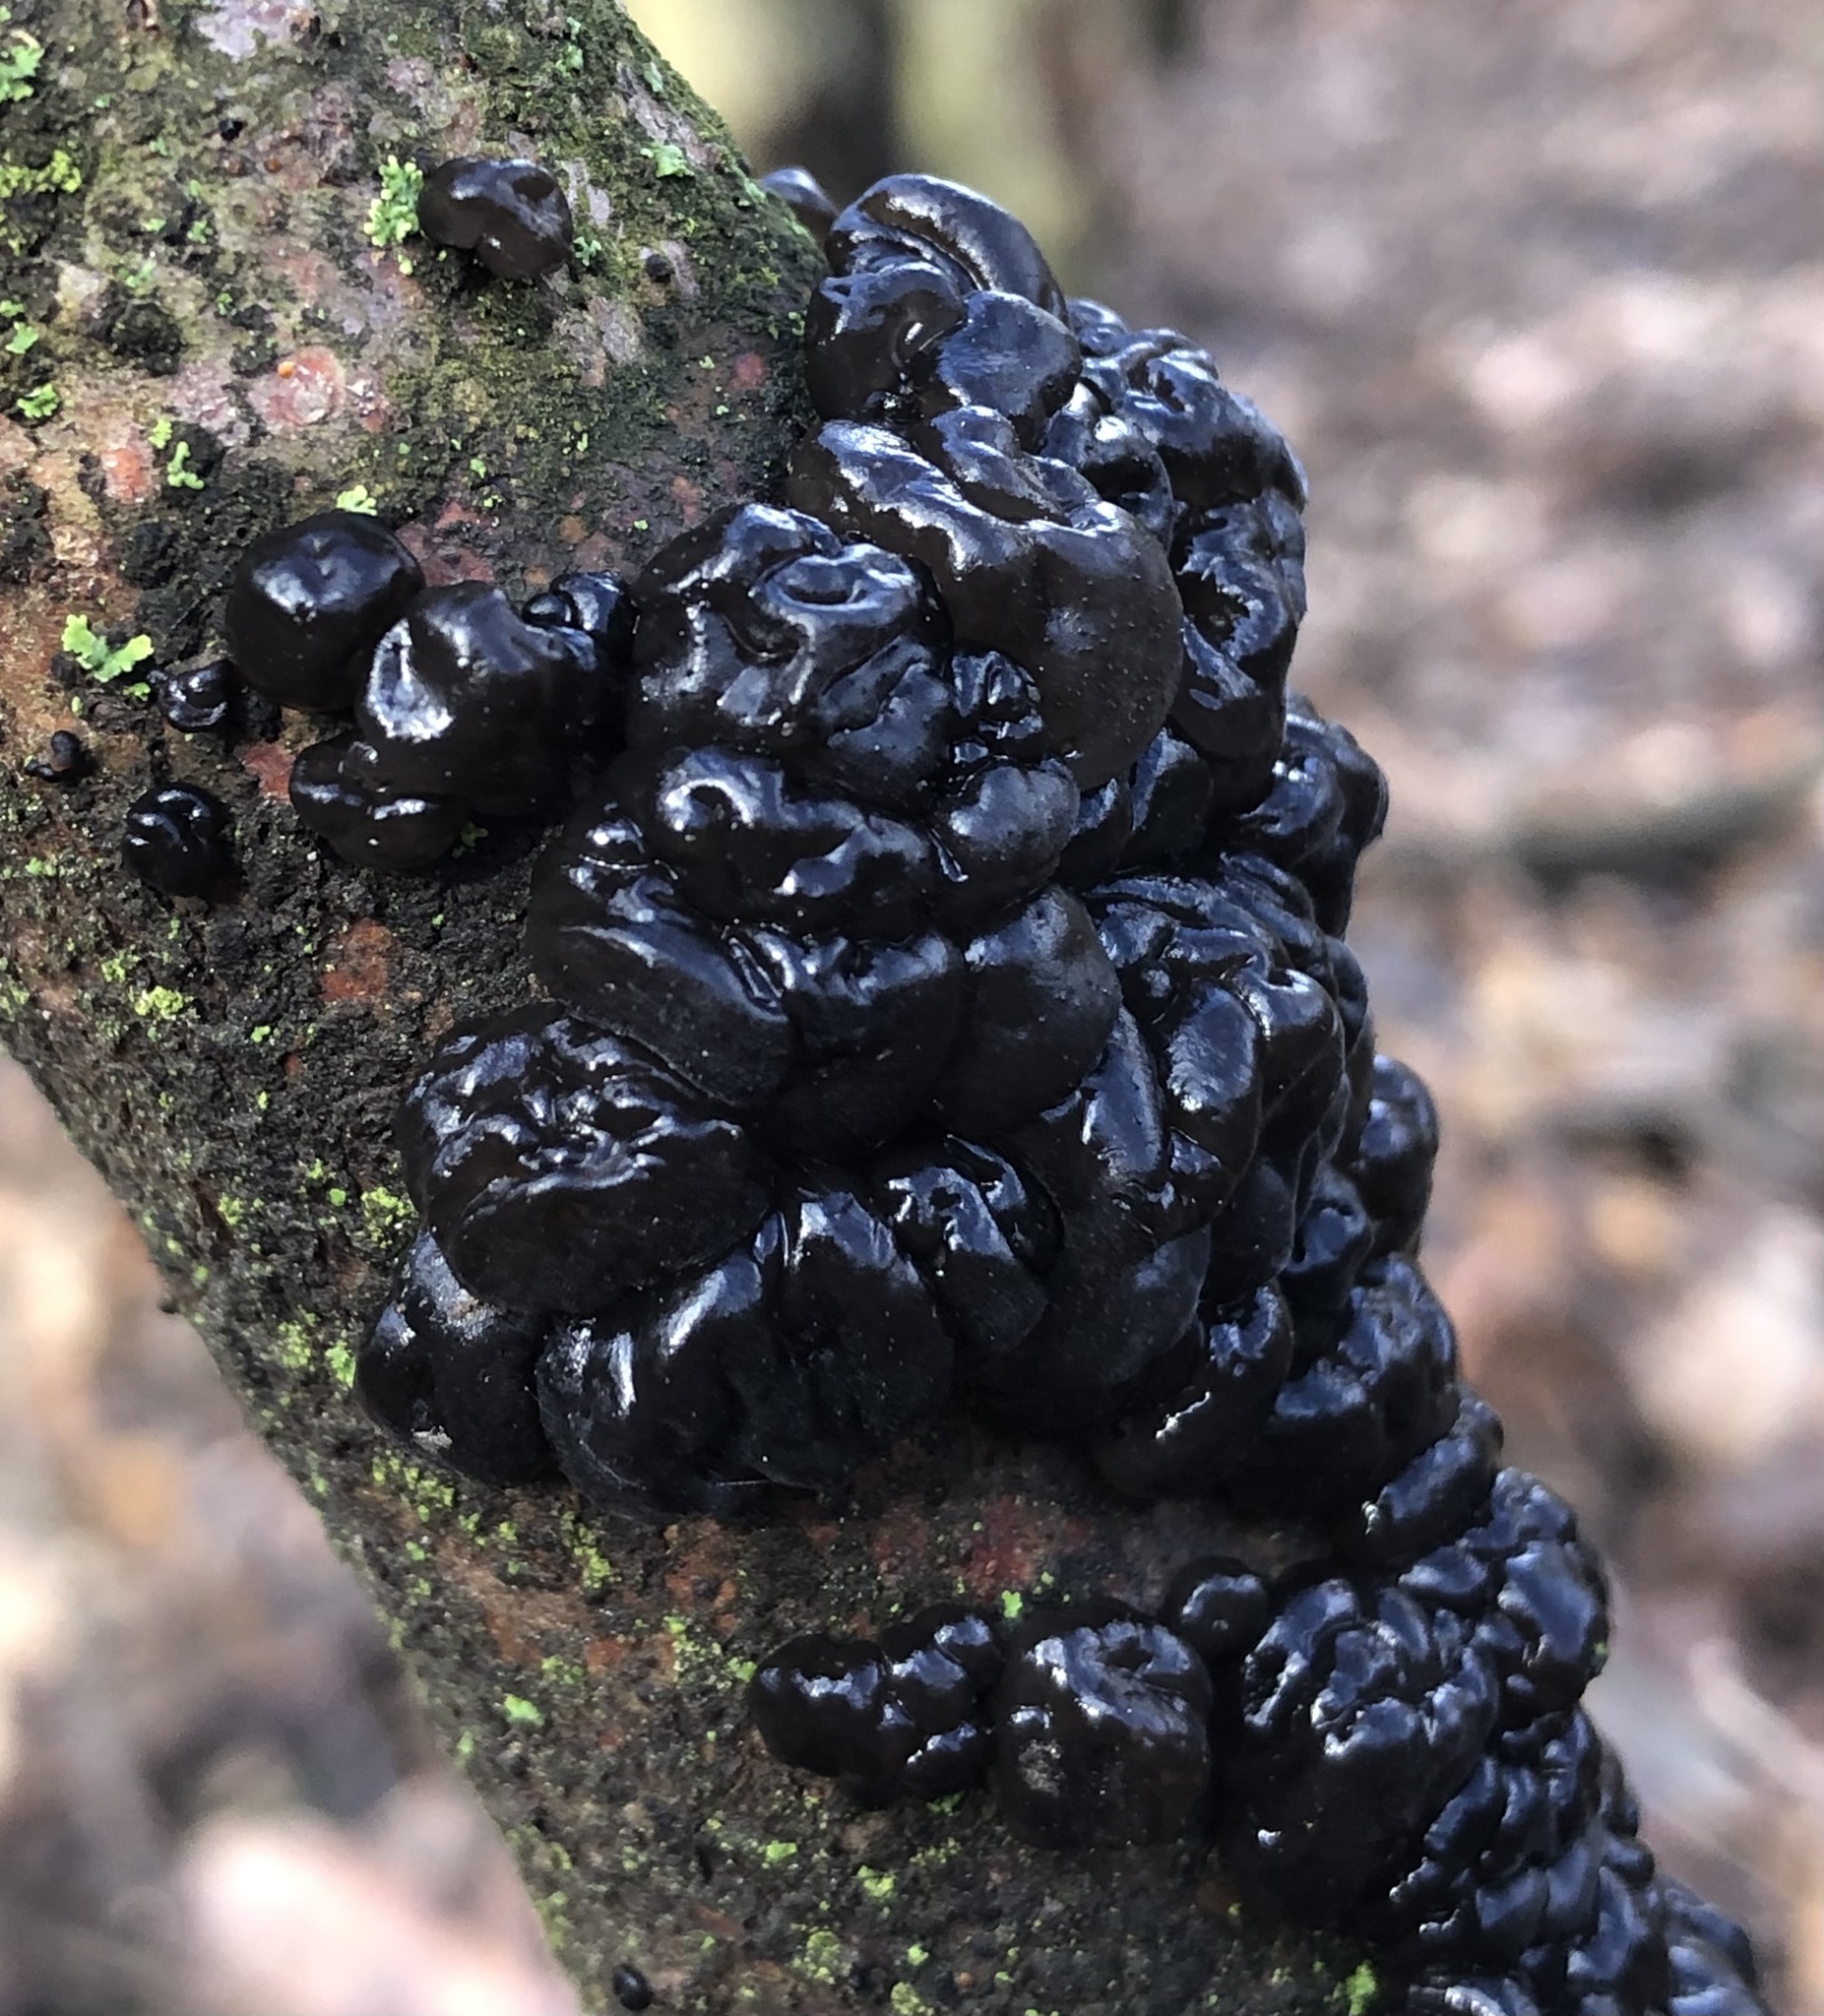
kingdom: Fungi
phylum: Basidiomycota
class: Agaricomycetes
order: Auriculariales
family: Auriculariaceae
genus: Exidia
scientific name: Exidia glandulosa
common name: Witches' butter
